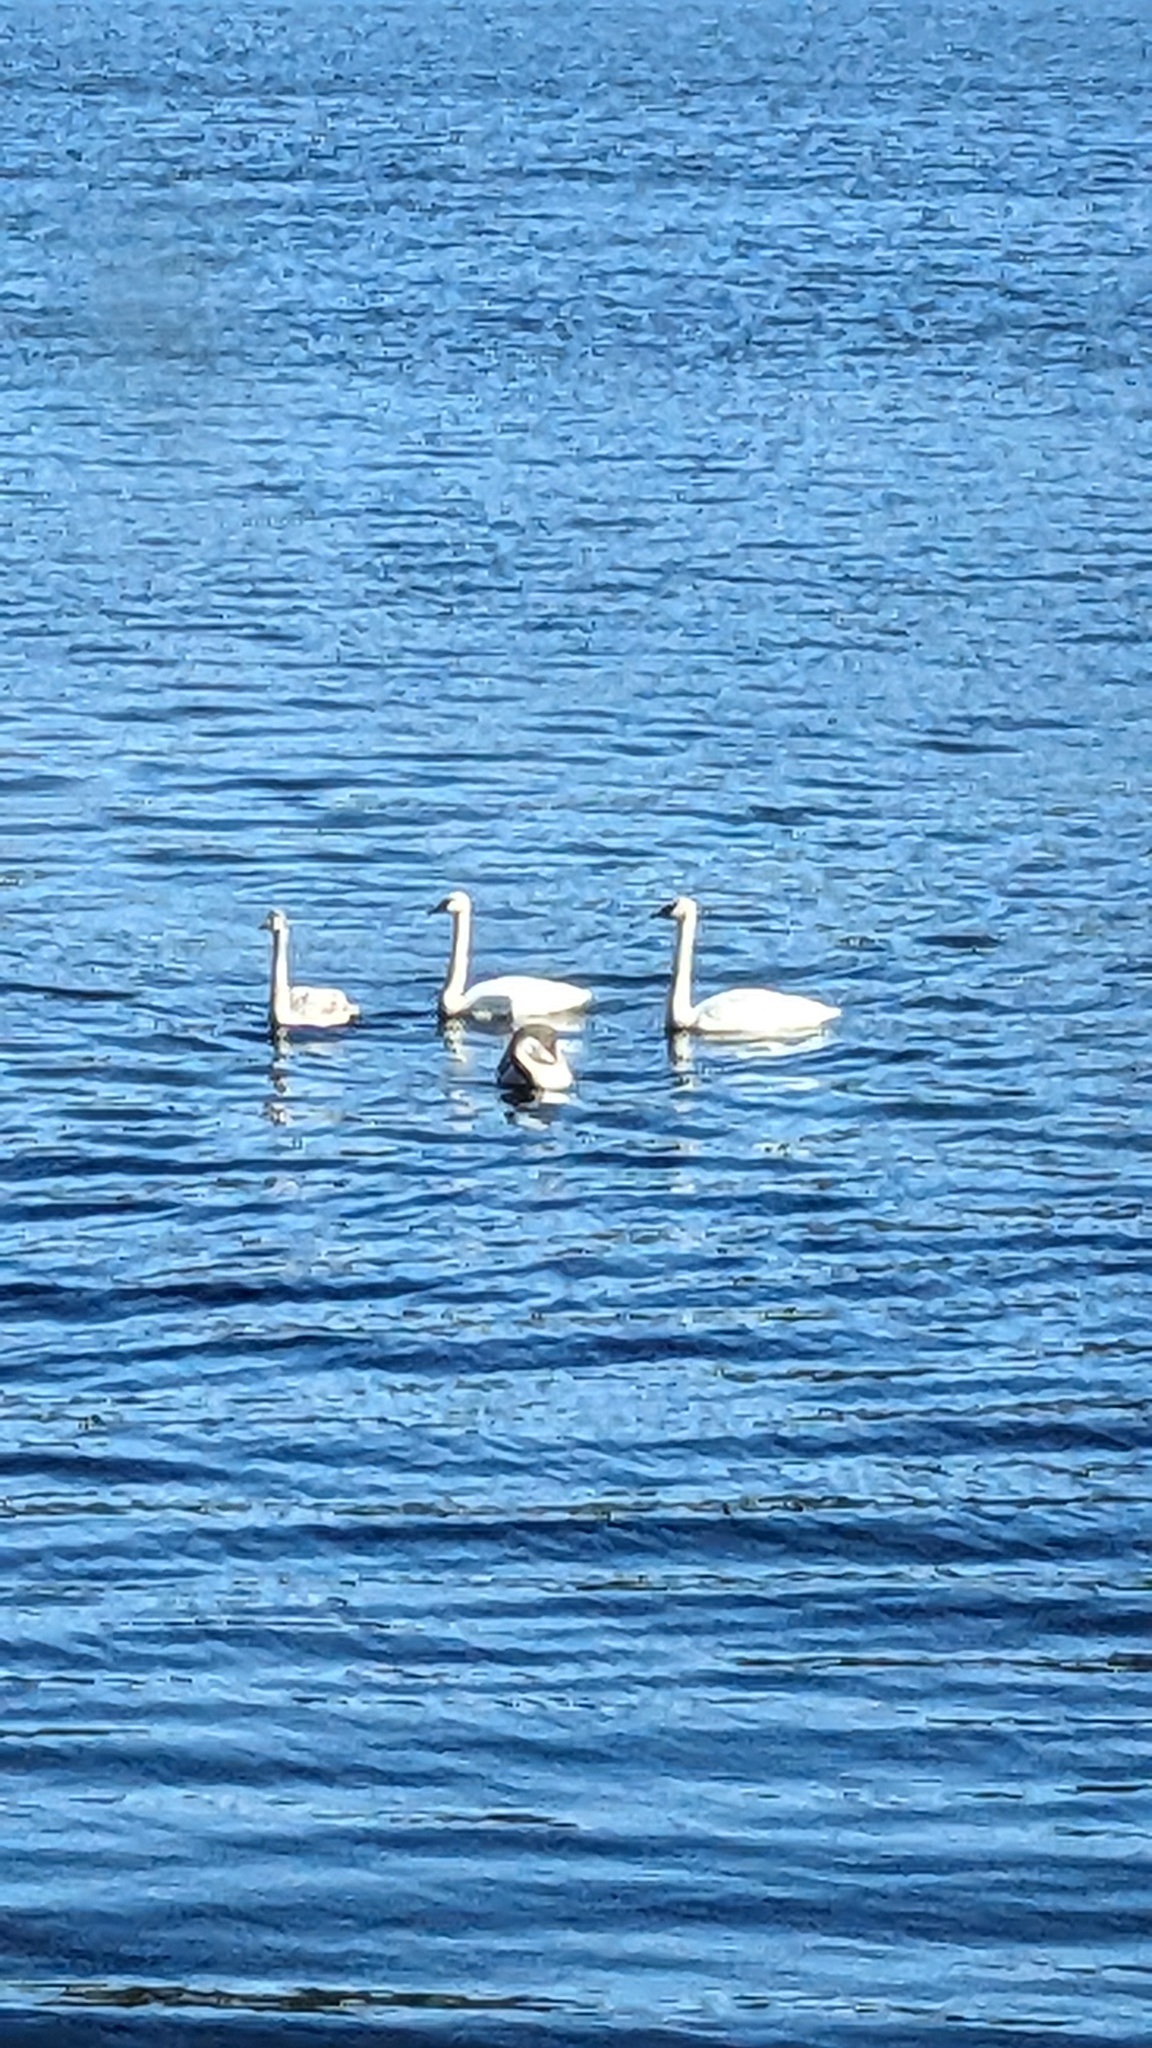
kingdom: Animalia
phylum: Chordata
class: Aves
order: Anseriformes
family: Anatidae
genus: Cygnus
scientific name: Cygnus buccinator
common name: Trumpeter swan
